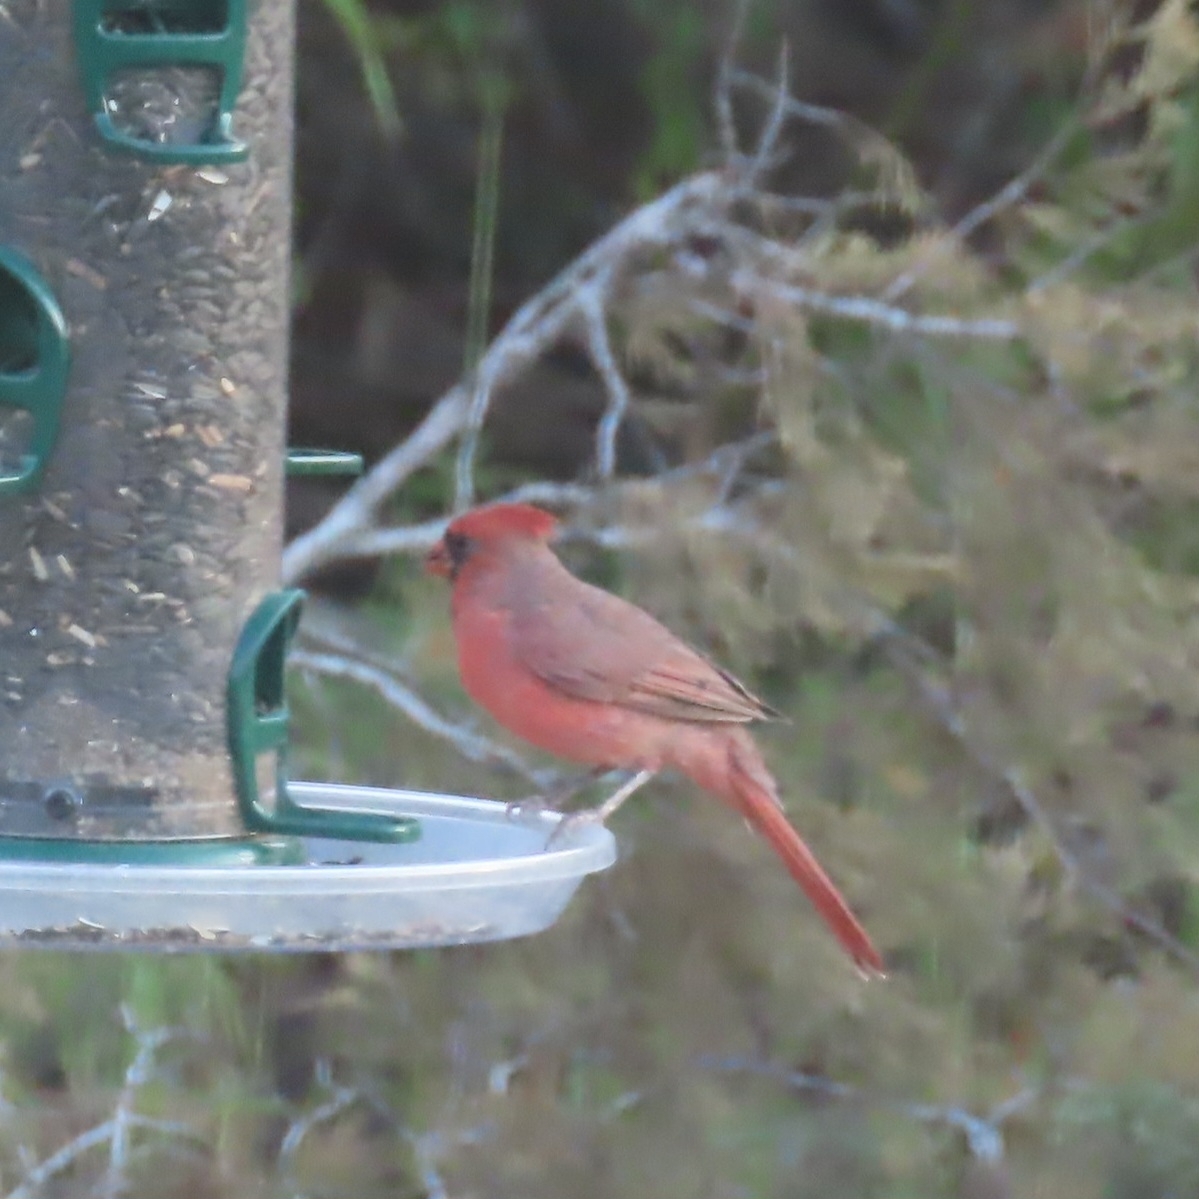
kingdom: Animalia
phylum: Chordata
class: Aves
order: Passeriformes
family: Cardinalidae
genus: Cardinalis
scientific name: Cardinalis cardinalis
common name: Northern cardinal
